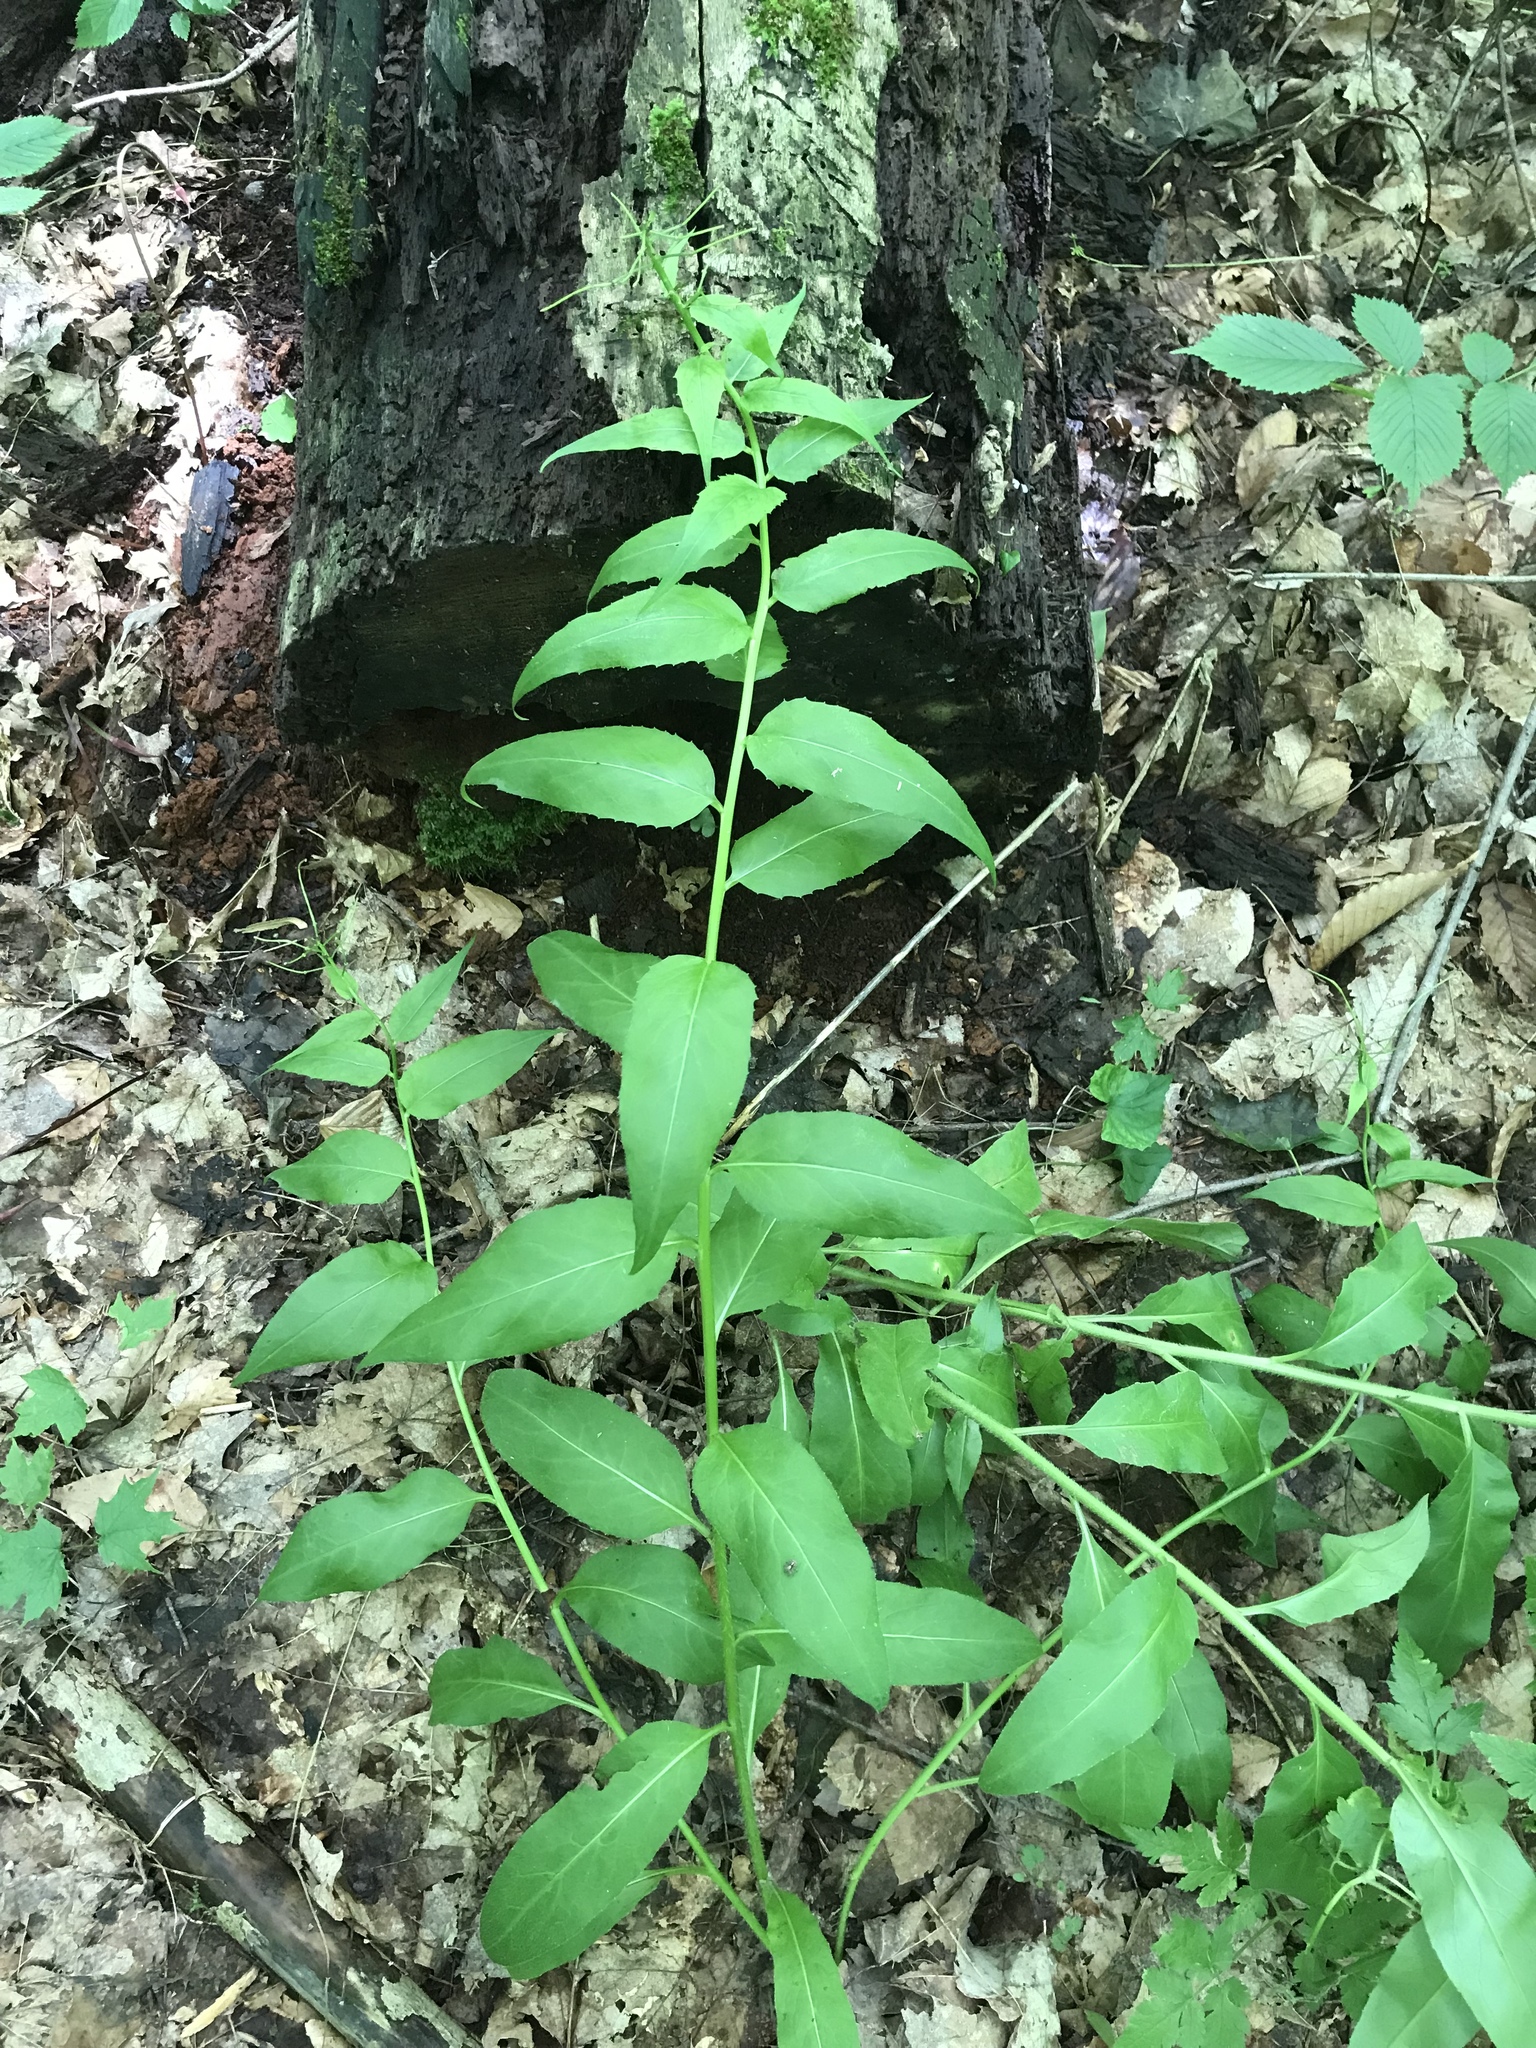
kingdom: Plantae
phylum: Tracheophyta
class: Magnoliopsida
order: Brassicales
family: Brassicaceae
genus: Hesperis
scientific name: Hesperis matronalis
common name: Dame's-violet
